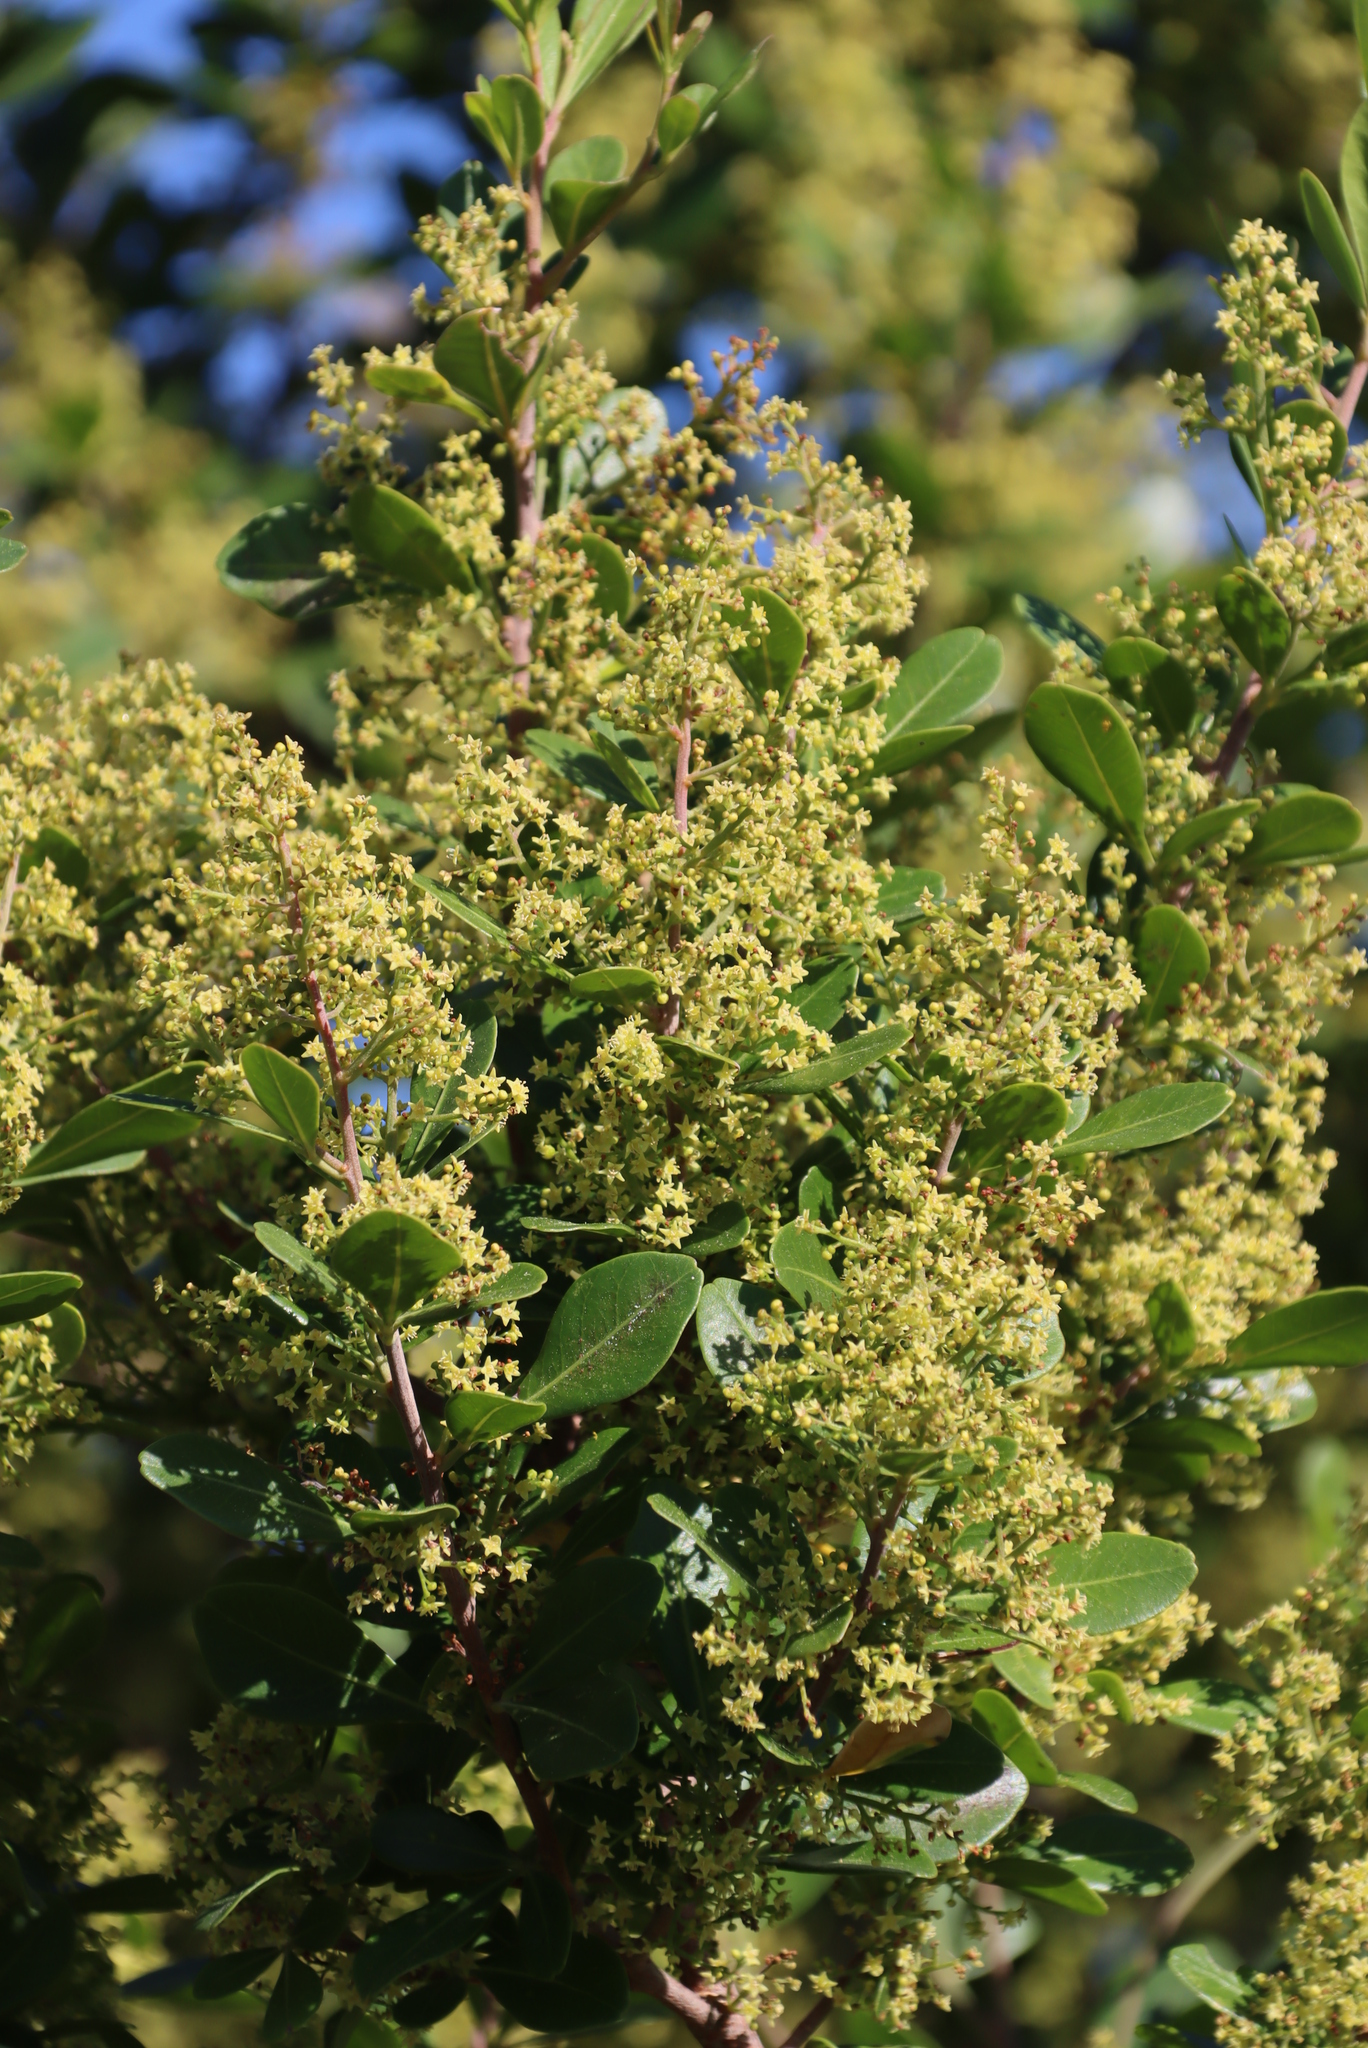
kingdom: Plantae
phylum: Tracheophyta
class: Magnoliopsida
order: Sapindales
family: Anacardiaceae
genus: Searsia
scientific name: Searsia lucida
